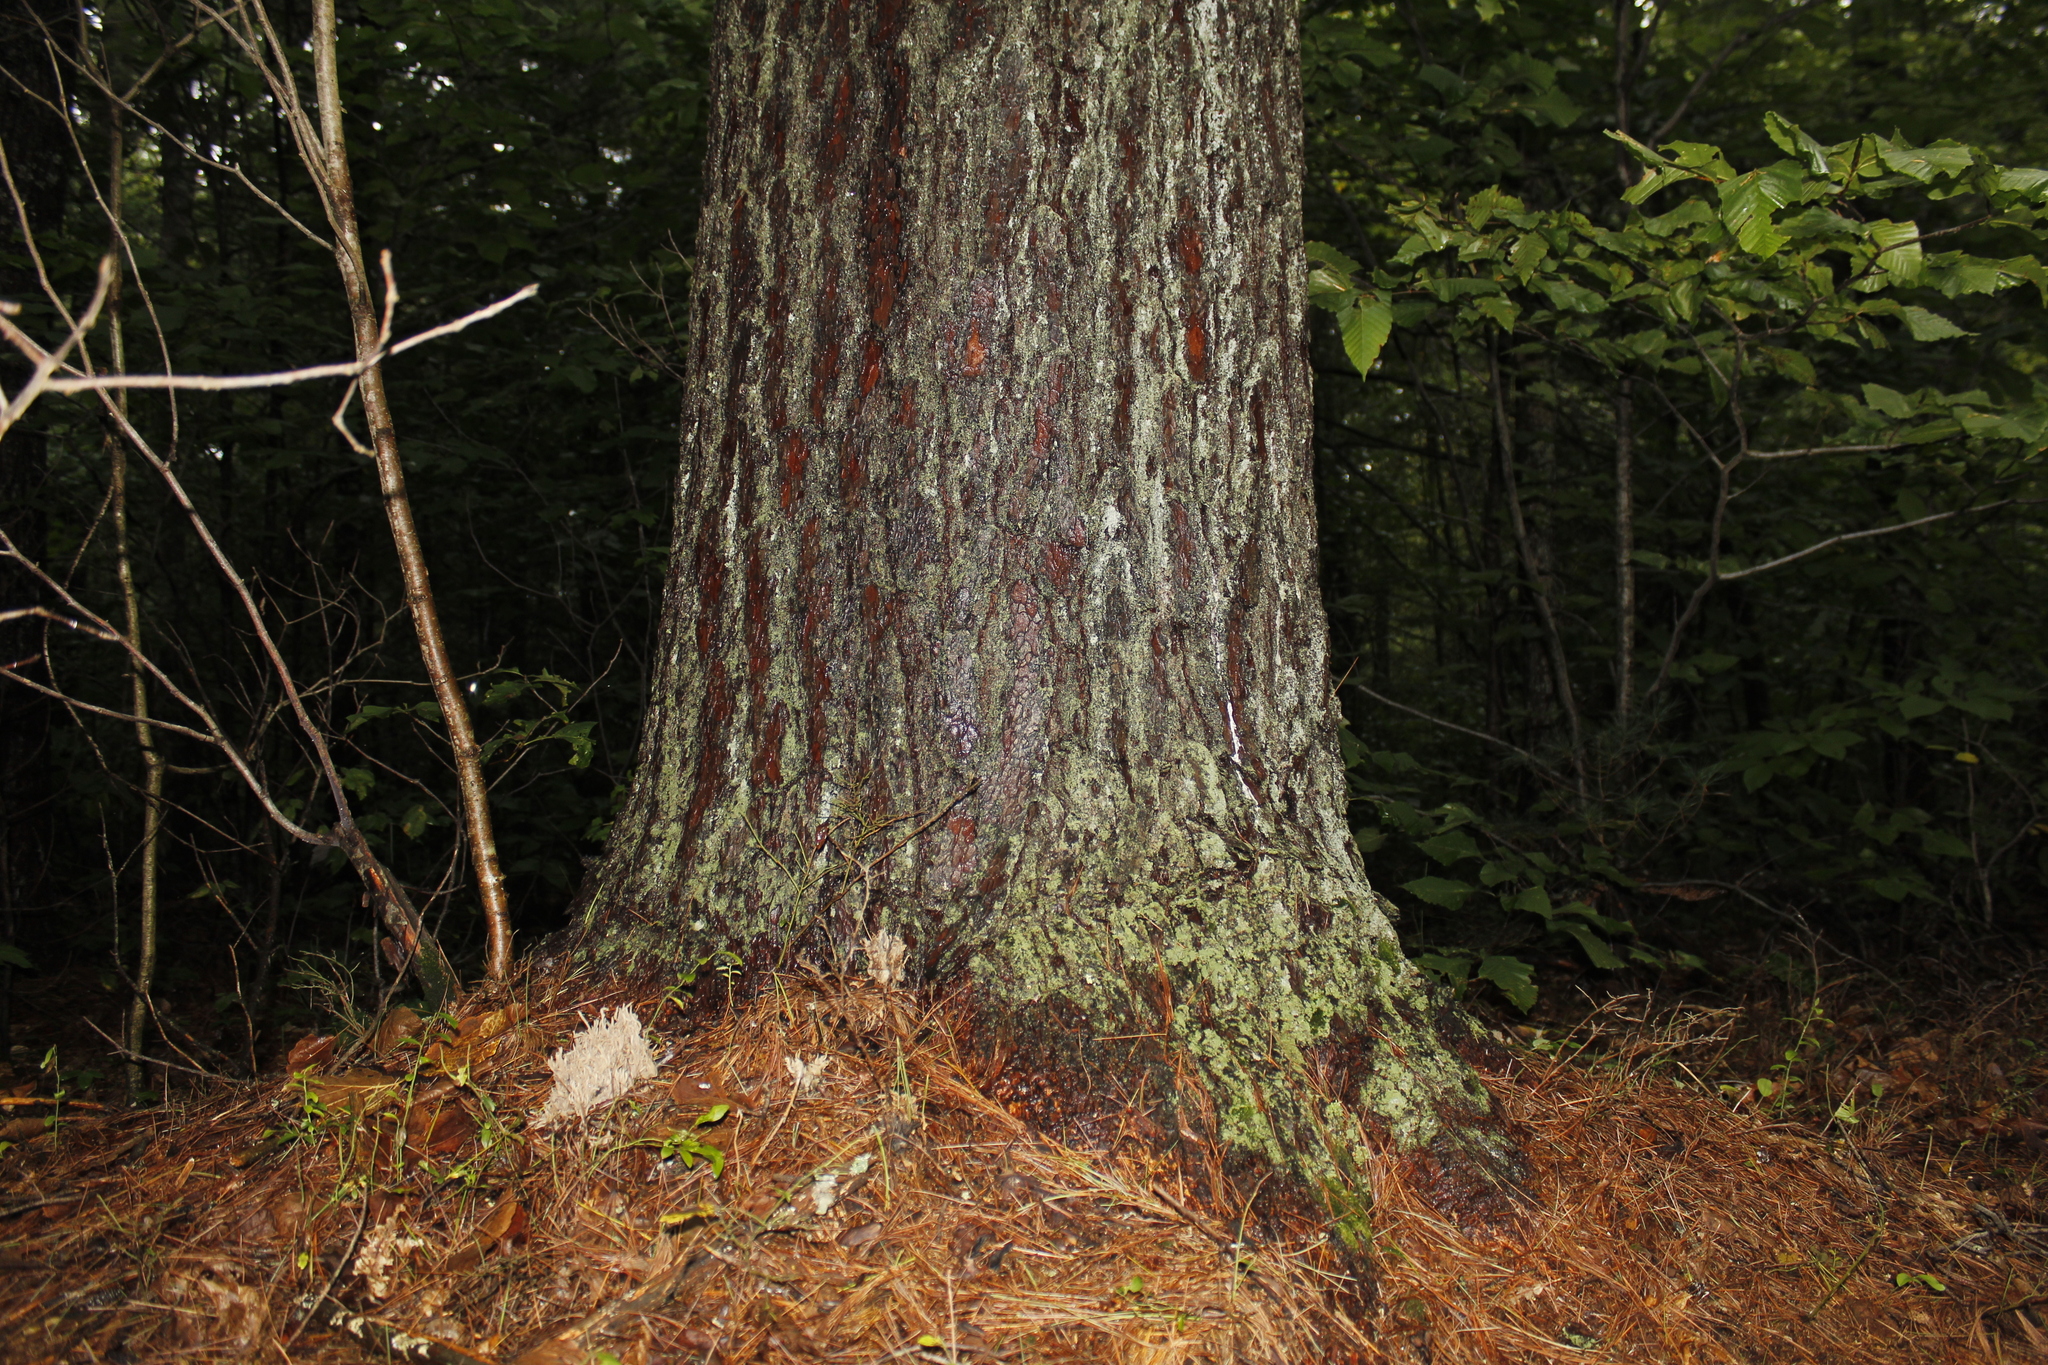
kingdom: Plantae
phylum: Tracheophyta
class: Pinopsida
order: Pinales
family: Pinaceae
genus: Pinus
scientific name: Pinus strobus
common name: Weymouth pine
